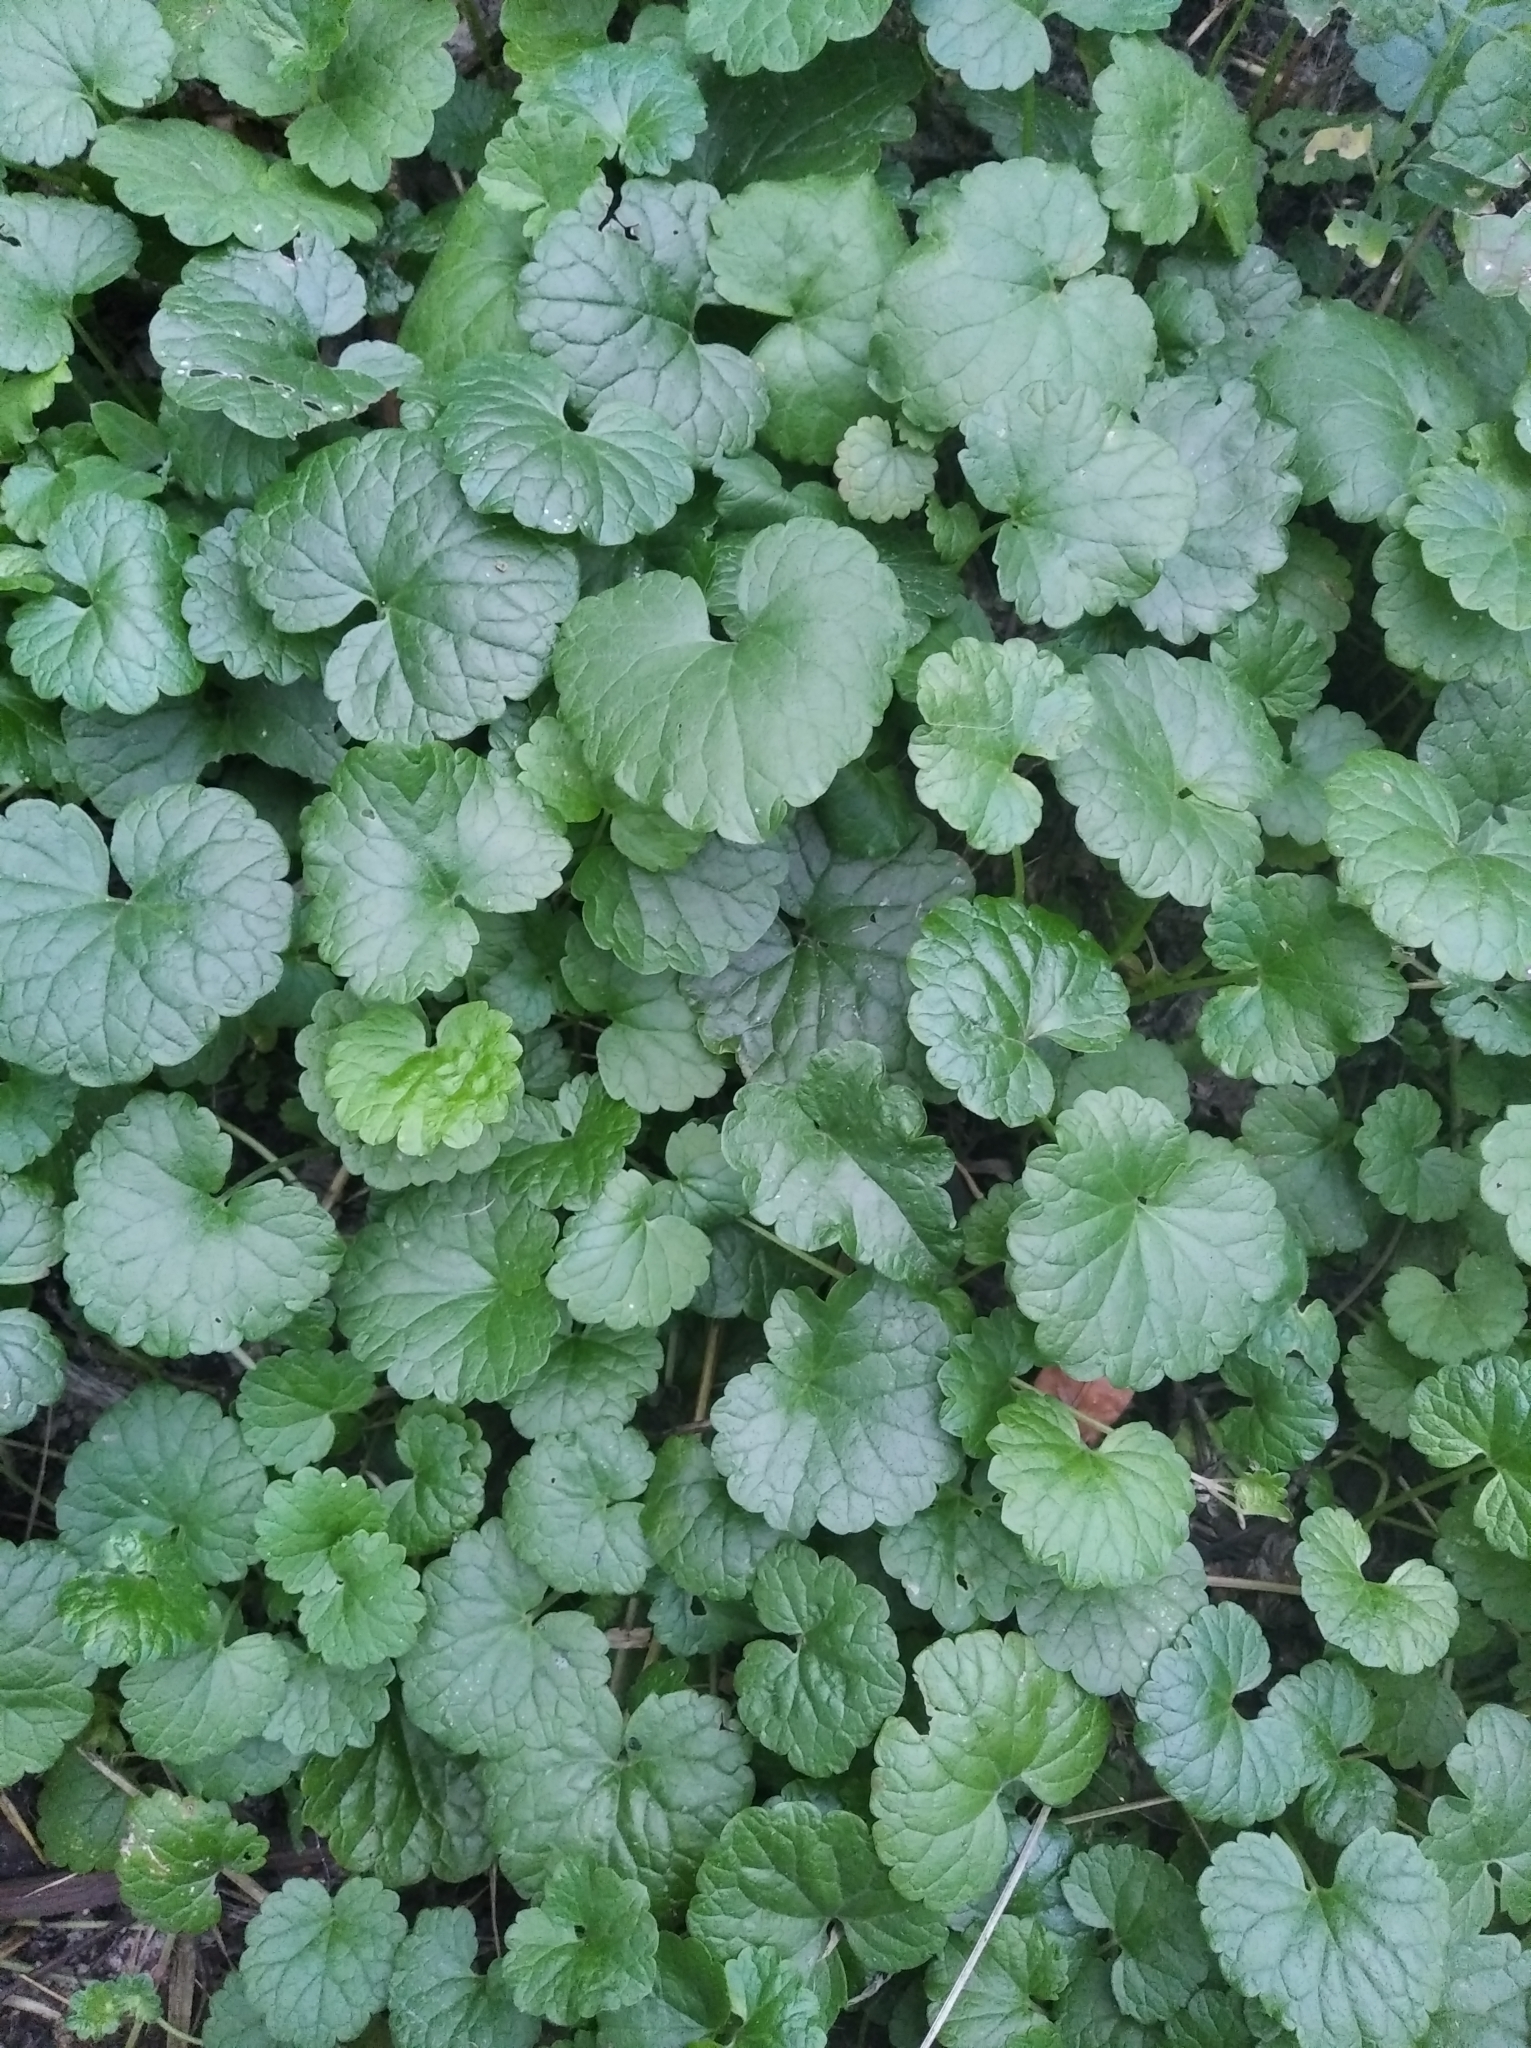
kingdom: Plantae
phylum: Tracheophyta
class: Magnoliopsida
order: Lamiales
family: Lamiaceae
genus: Glechoma
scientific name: Glechoma hederacea
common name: Ground ivy
